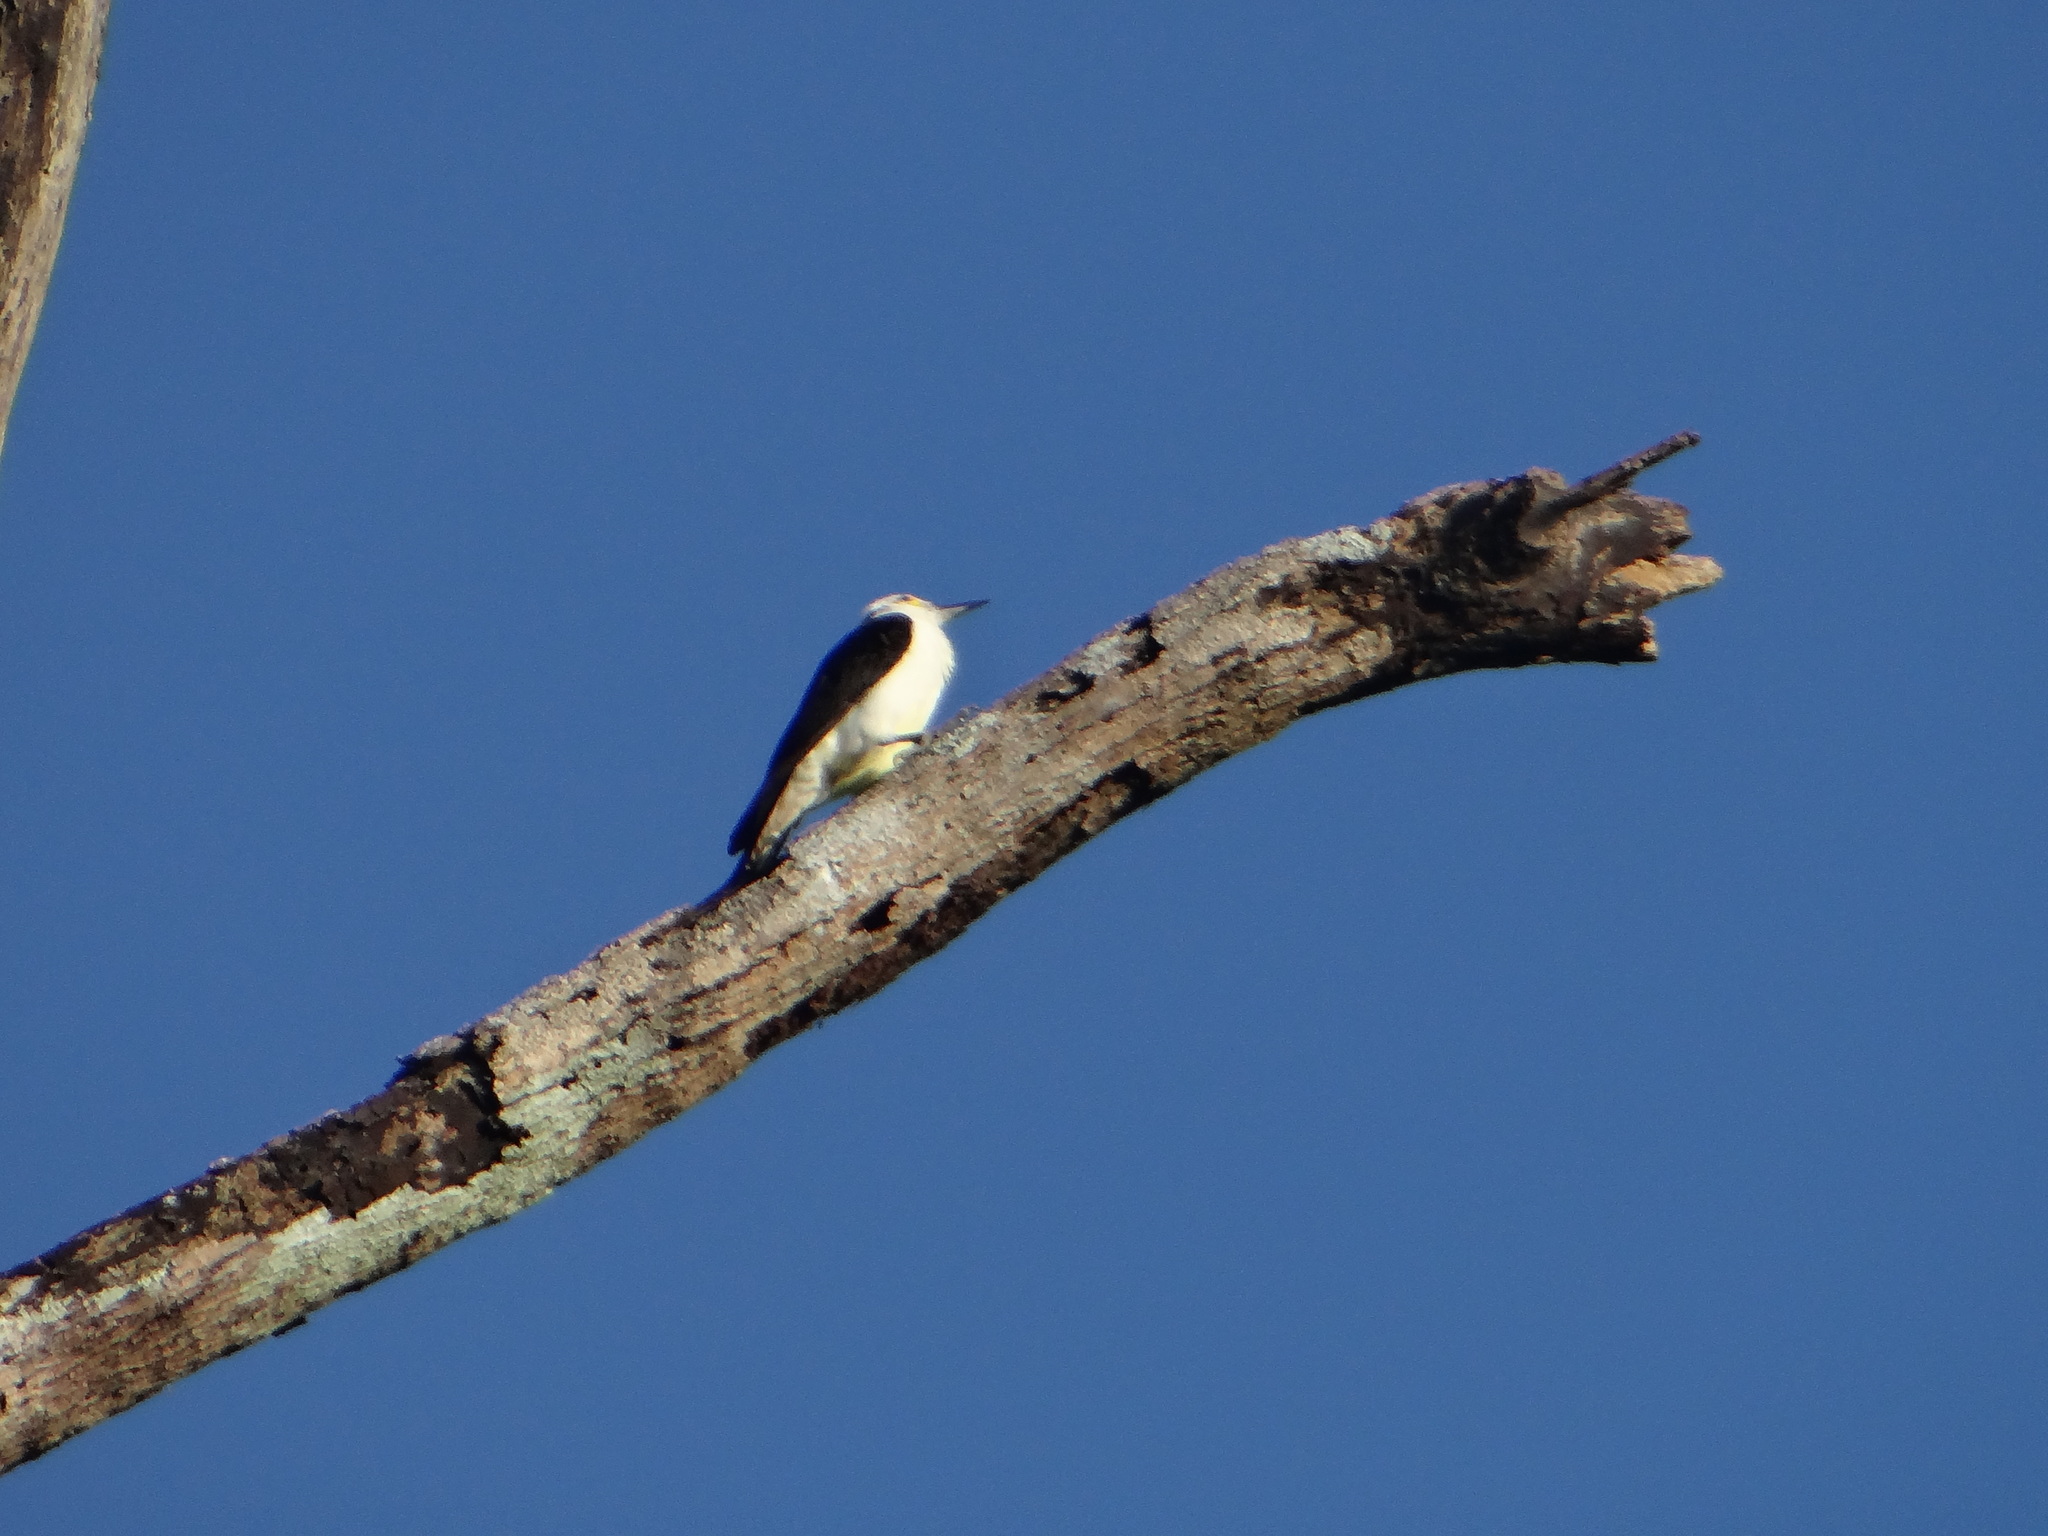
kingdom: Animalia
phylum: Chordata
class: Aves
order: Piciformes
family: Picidae
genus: Melanerpes
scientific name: Melanerpes candidus
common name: White woodpecker
